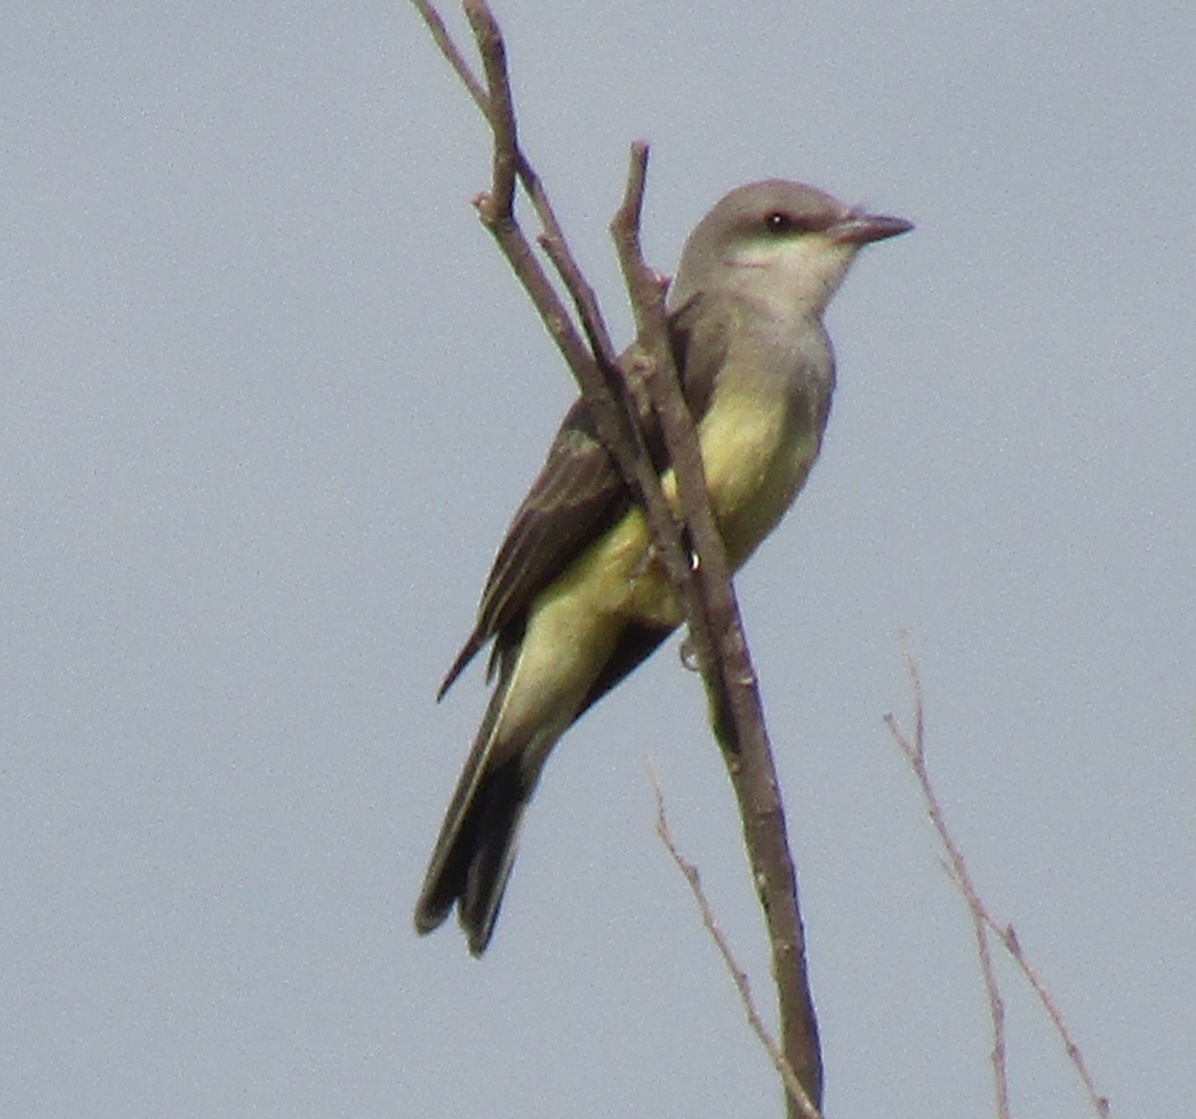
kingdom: Animalia
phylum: Chordata
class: Aves
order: Passeriformes
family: Tyrannidae
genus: Tyrannus
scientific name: Tyrannus verticalis
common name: Western kingbird
